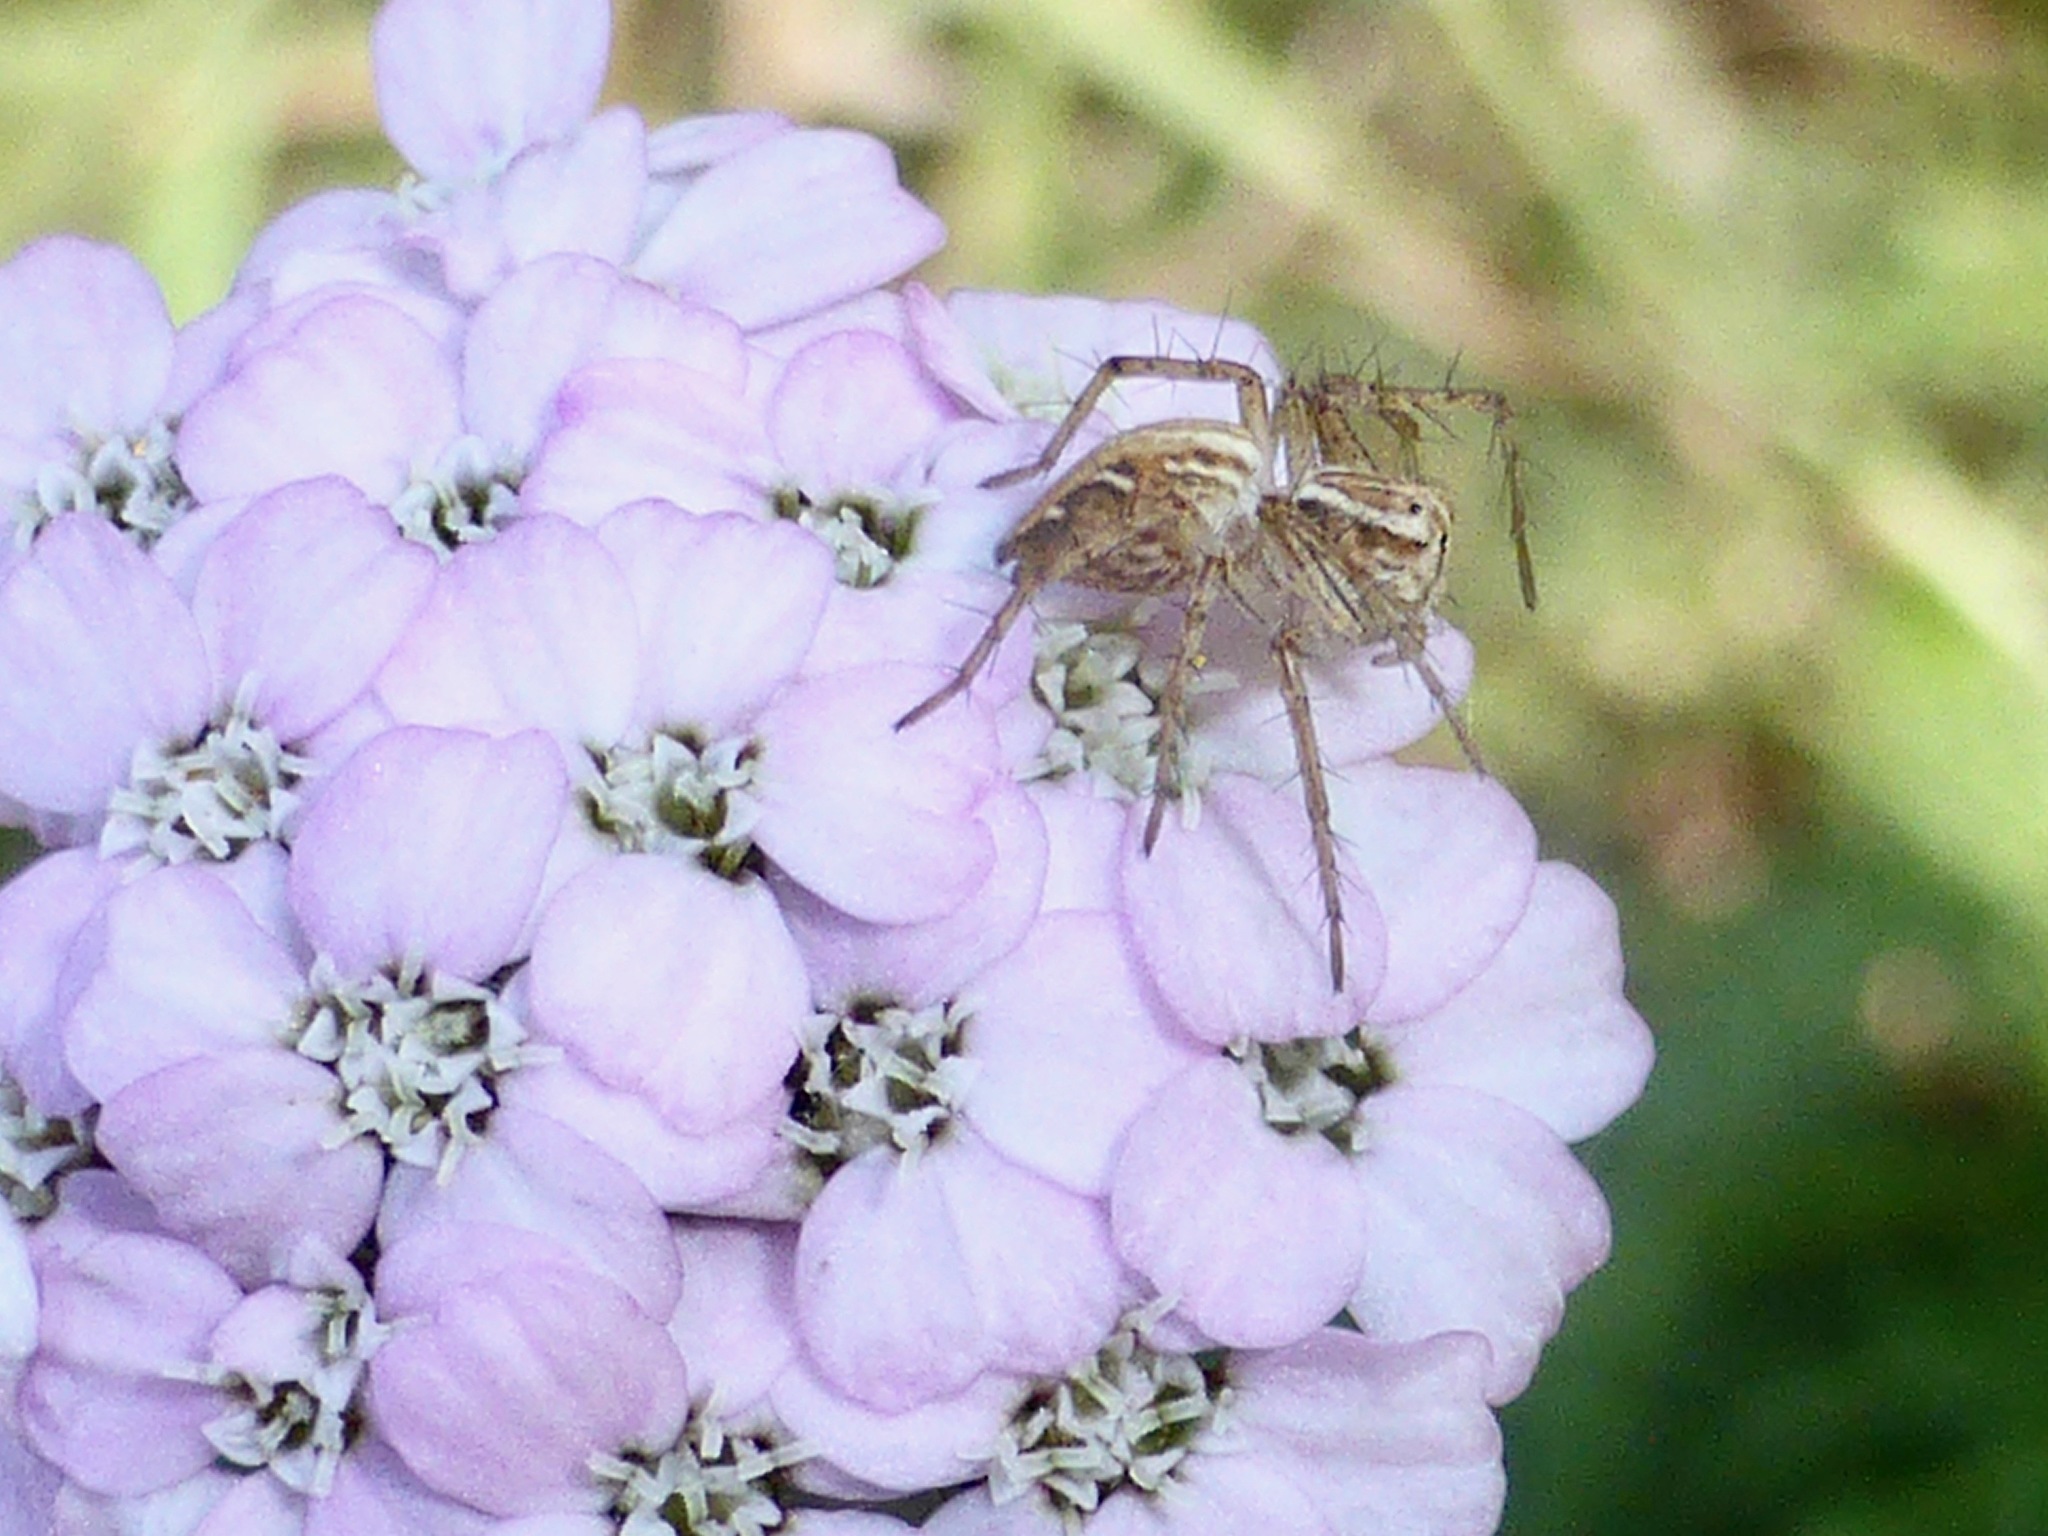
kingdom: Animalia
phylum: Arthropoda
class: Arachnida
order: Araneae
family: Oxyopidae
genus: Oxyopes
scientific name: Oxyopes gracilipes
